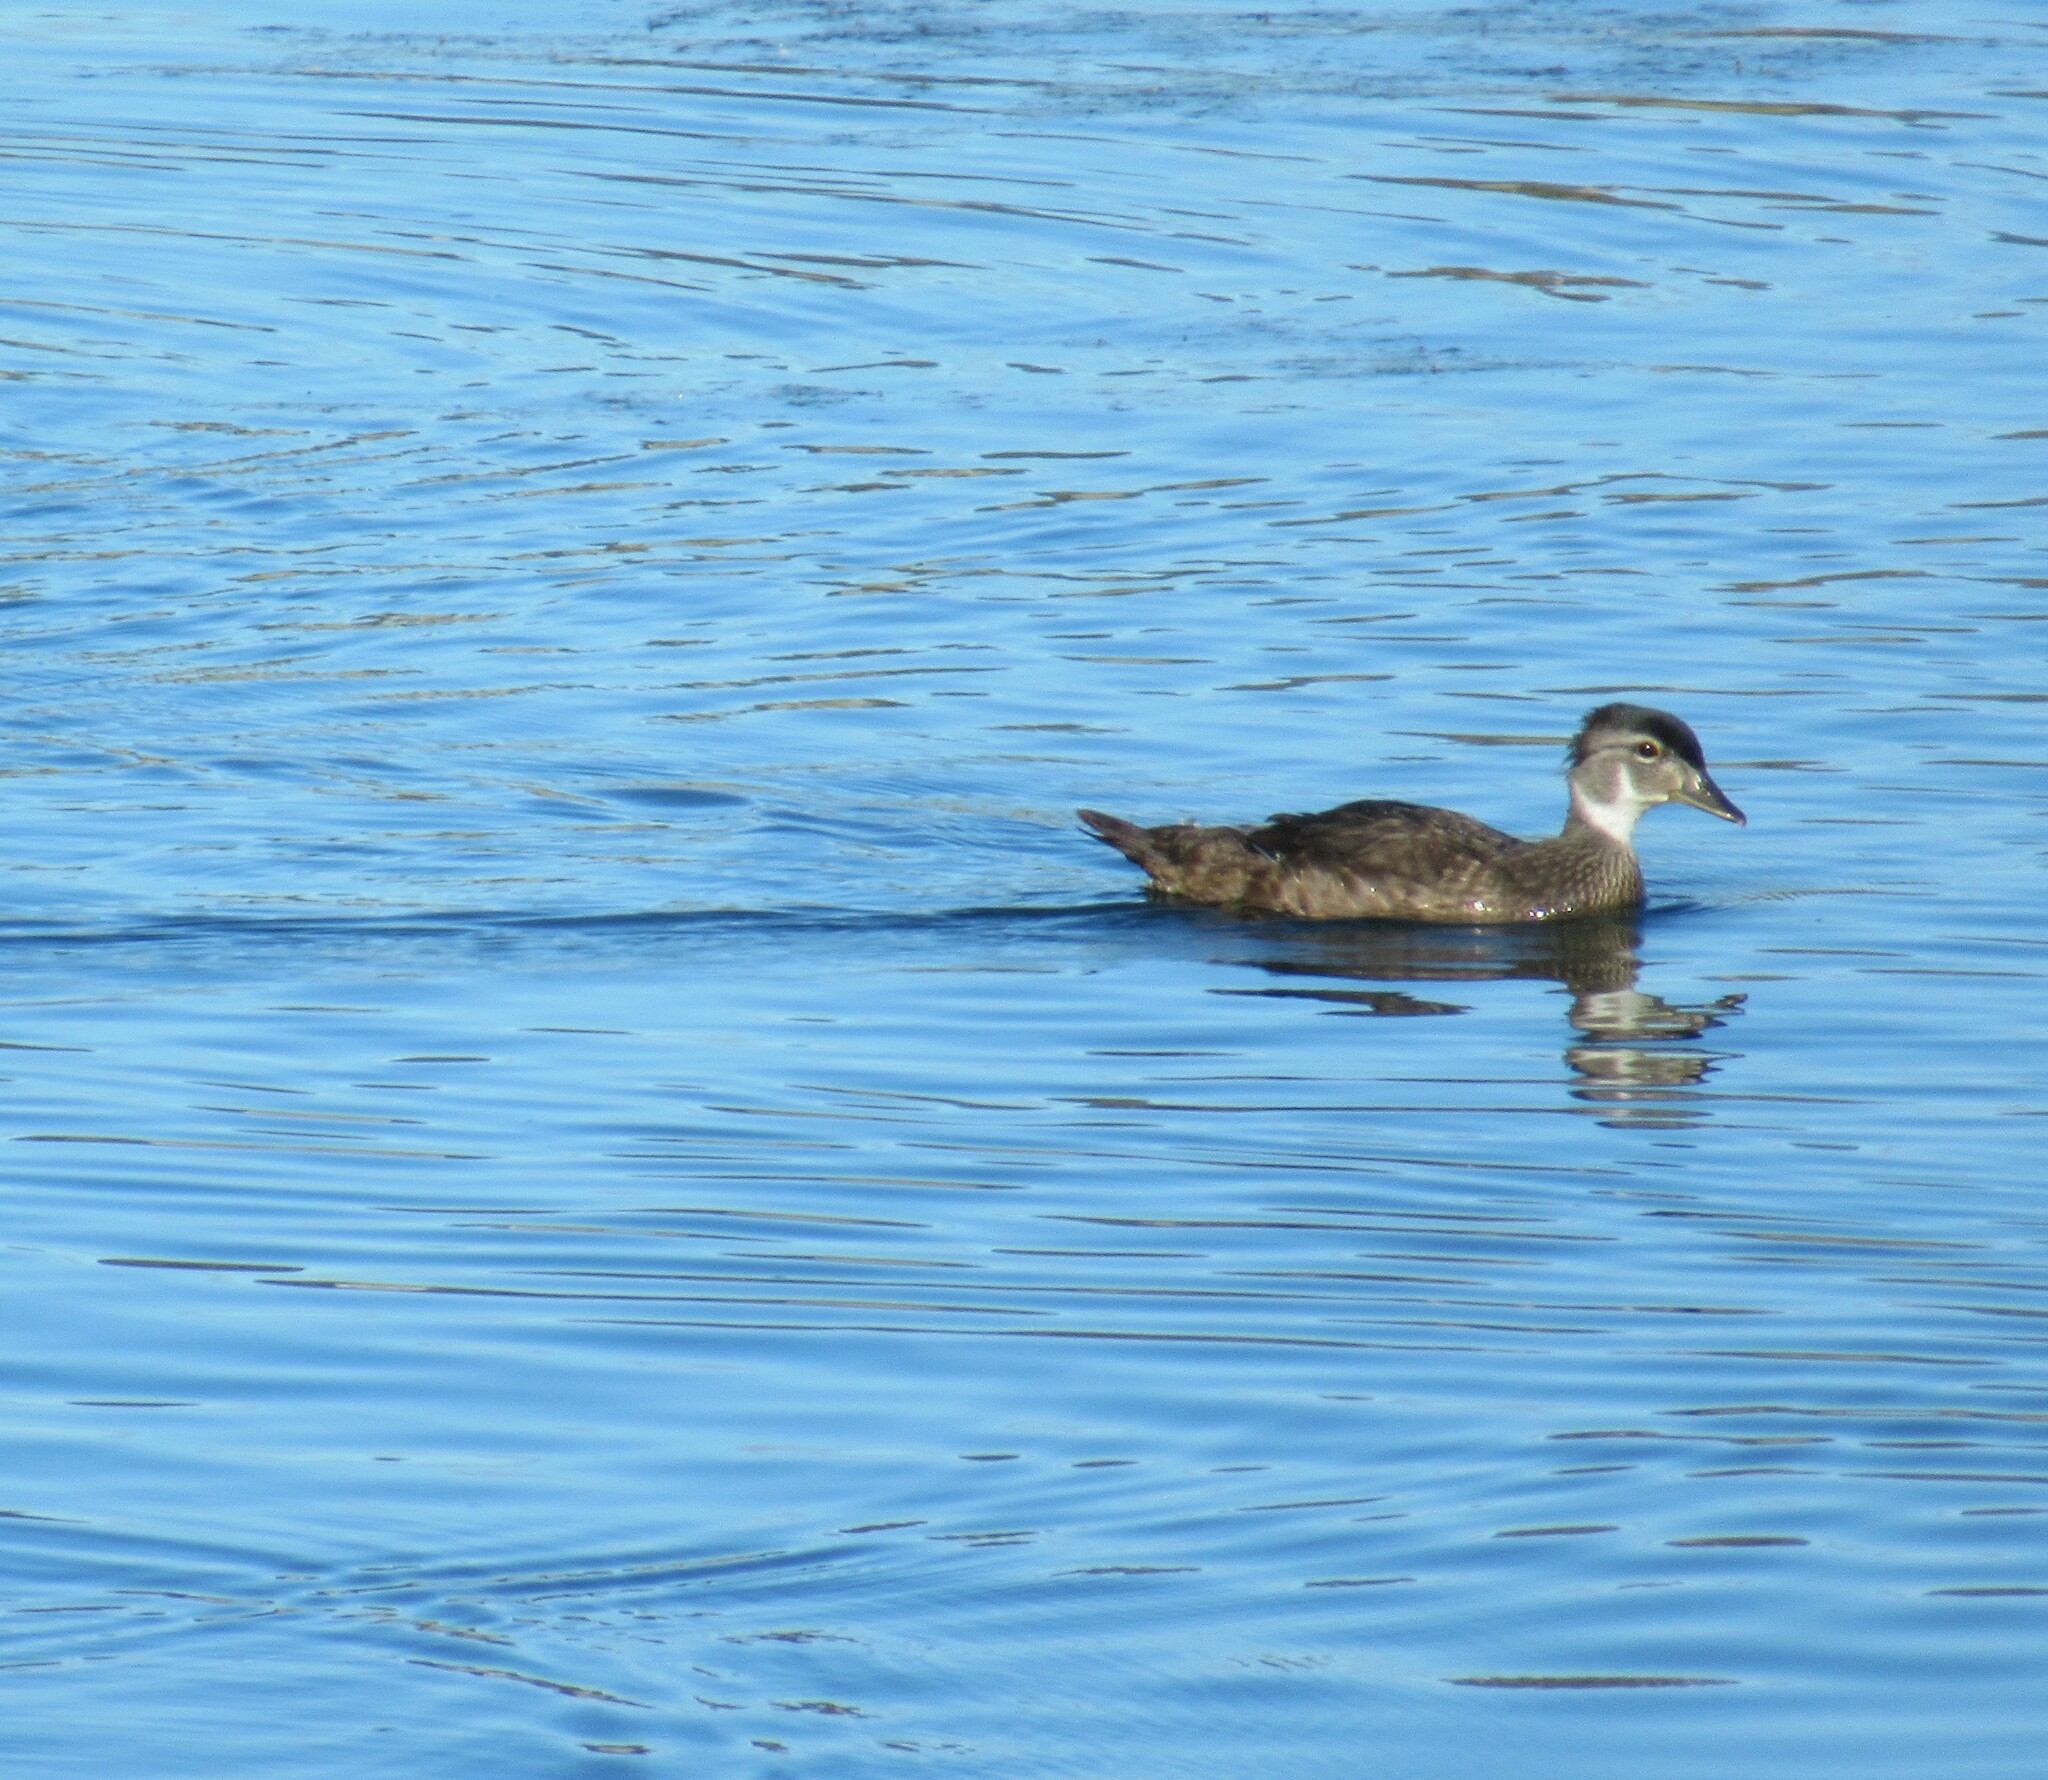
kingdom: Animalia
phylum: Chordata
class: Aves
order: Anseriformes
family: Anatidae
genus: Aix
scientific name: Aix sponsa
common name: Wood duck
